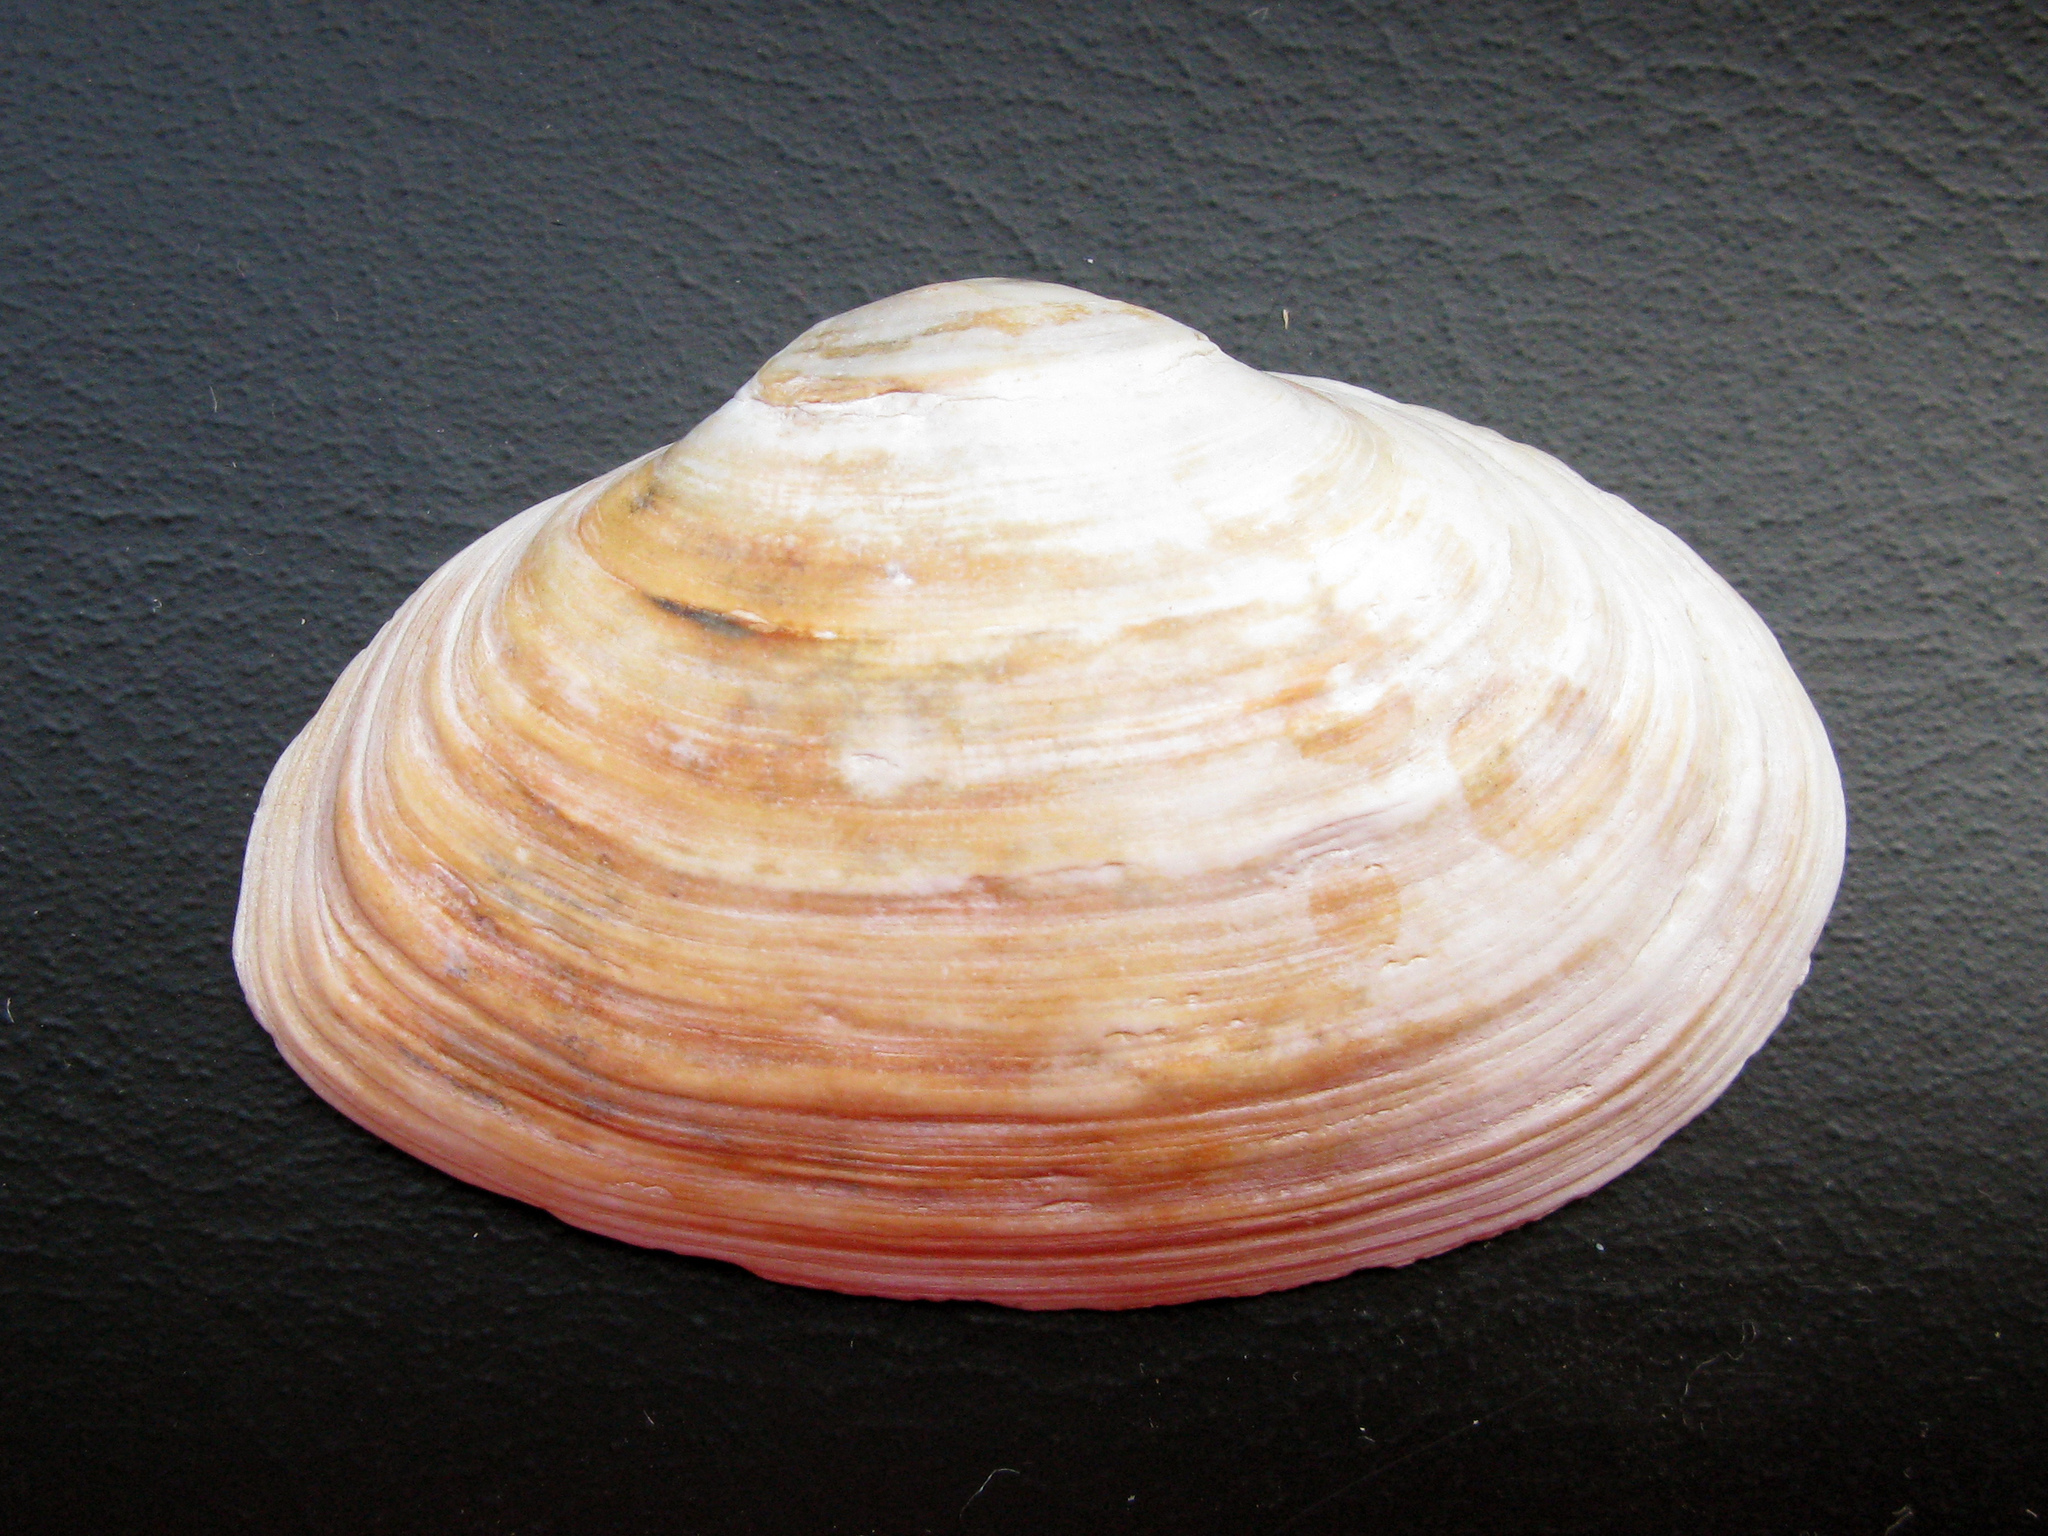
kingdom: Animalia
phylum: Mollusca
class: Bivalvia
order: Myida
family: Myidae
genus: Mya
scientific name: Mya arenaria
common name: Soft-shelled clam
